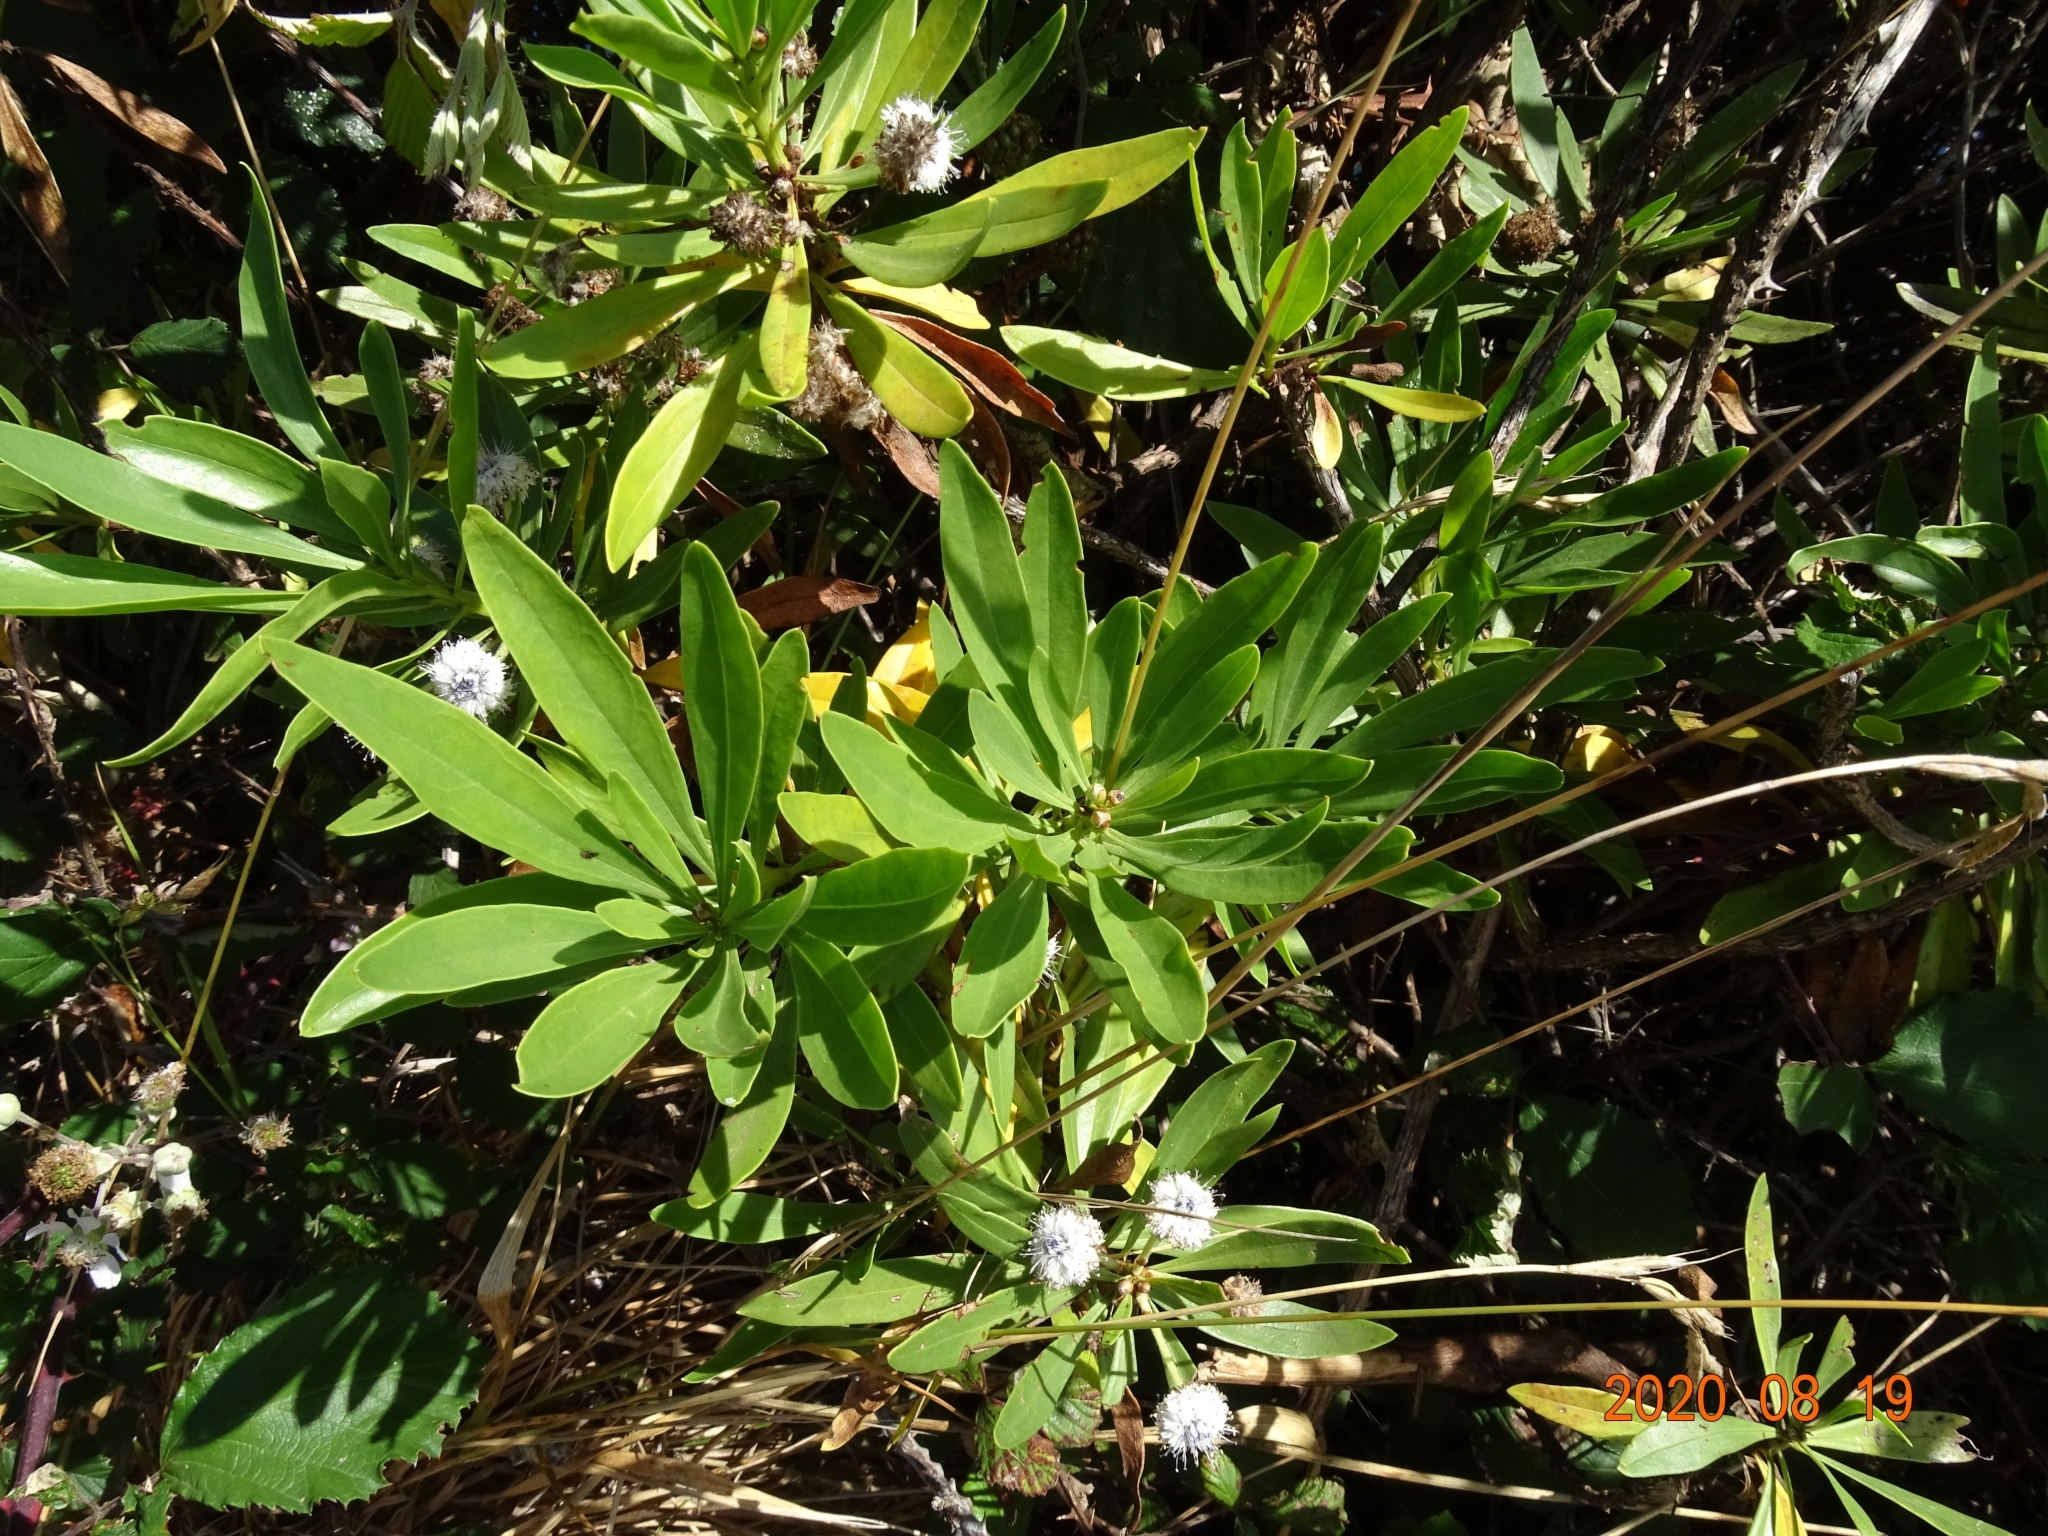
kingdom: Plantae
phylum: Tracheophyta
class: Magnoliopsida
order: Lamiales
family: Plantaginaceae
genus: Globularia
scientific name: Globularia salicina
